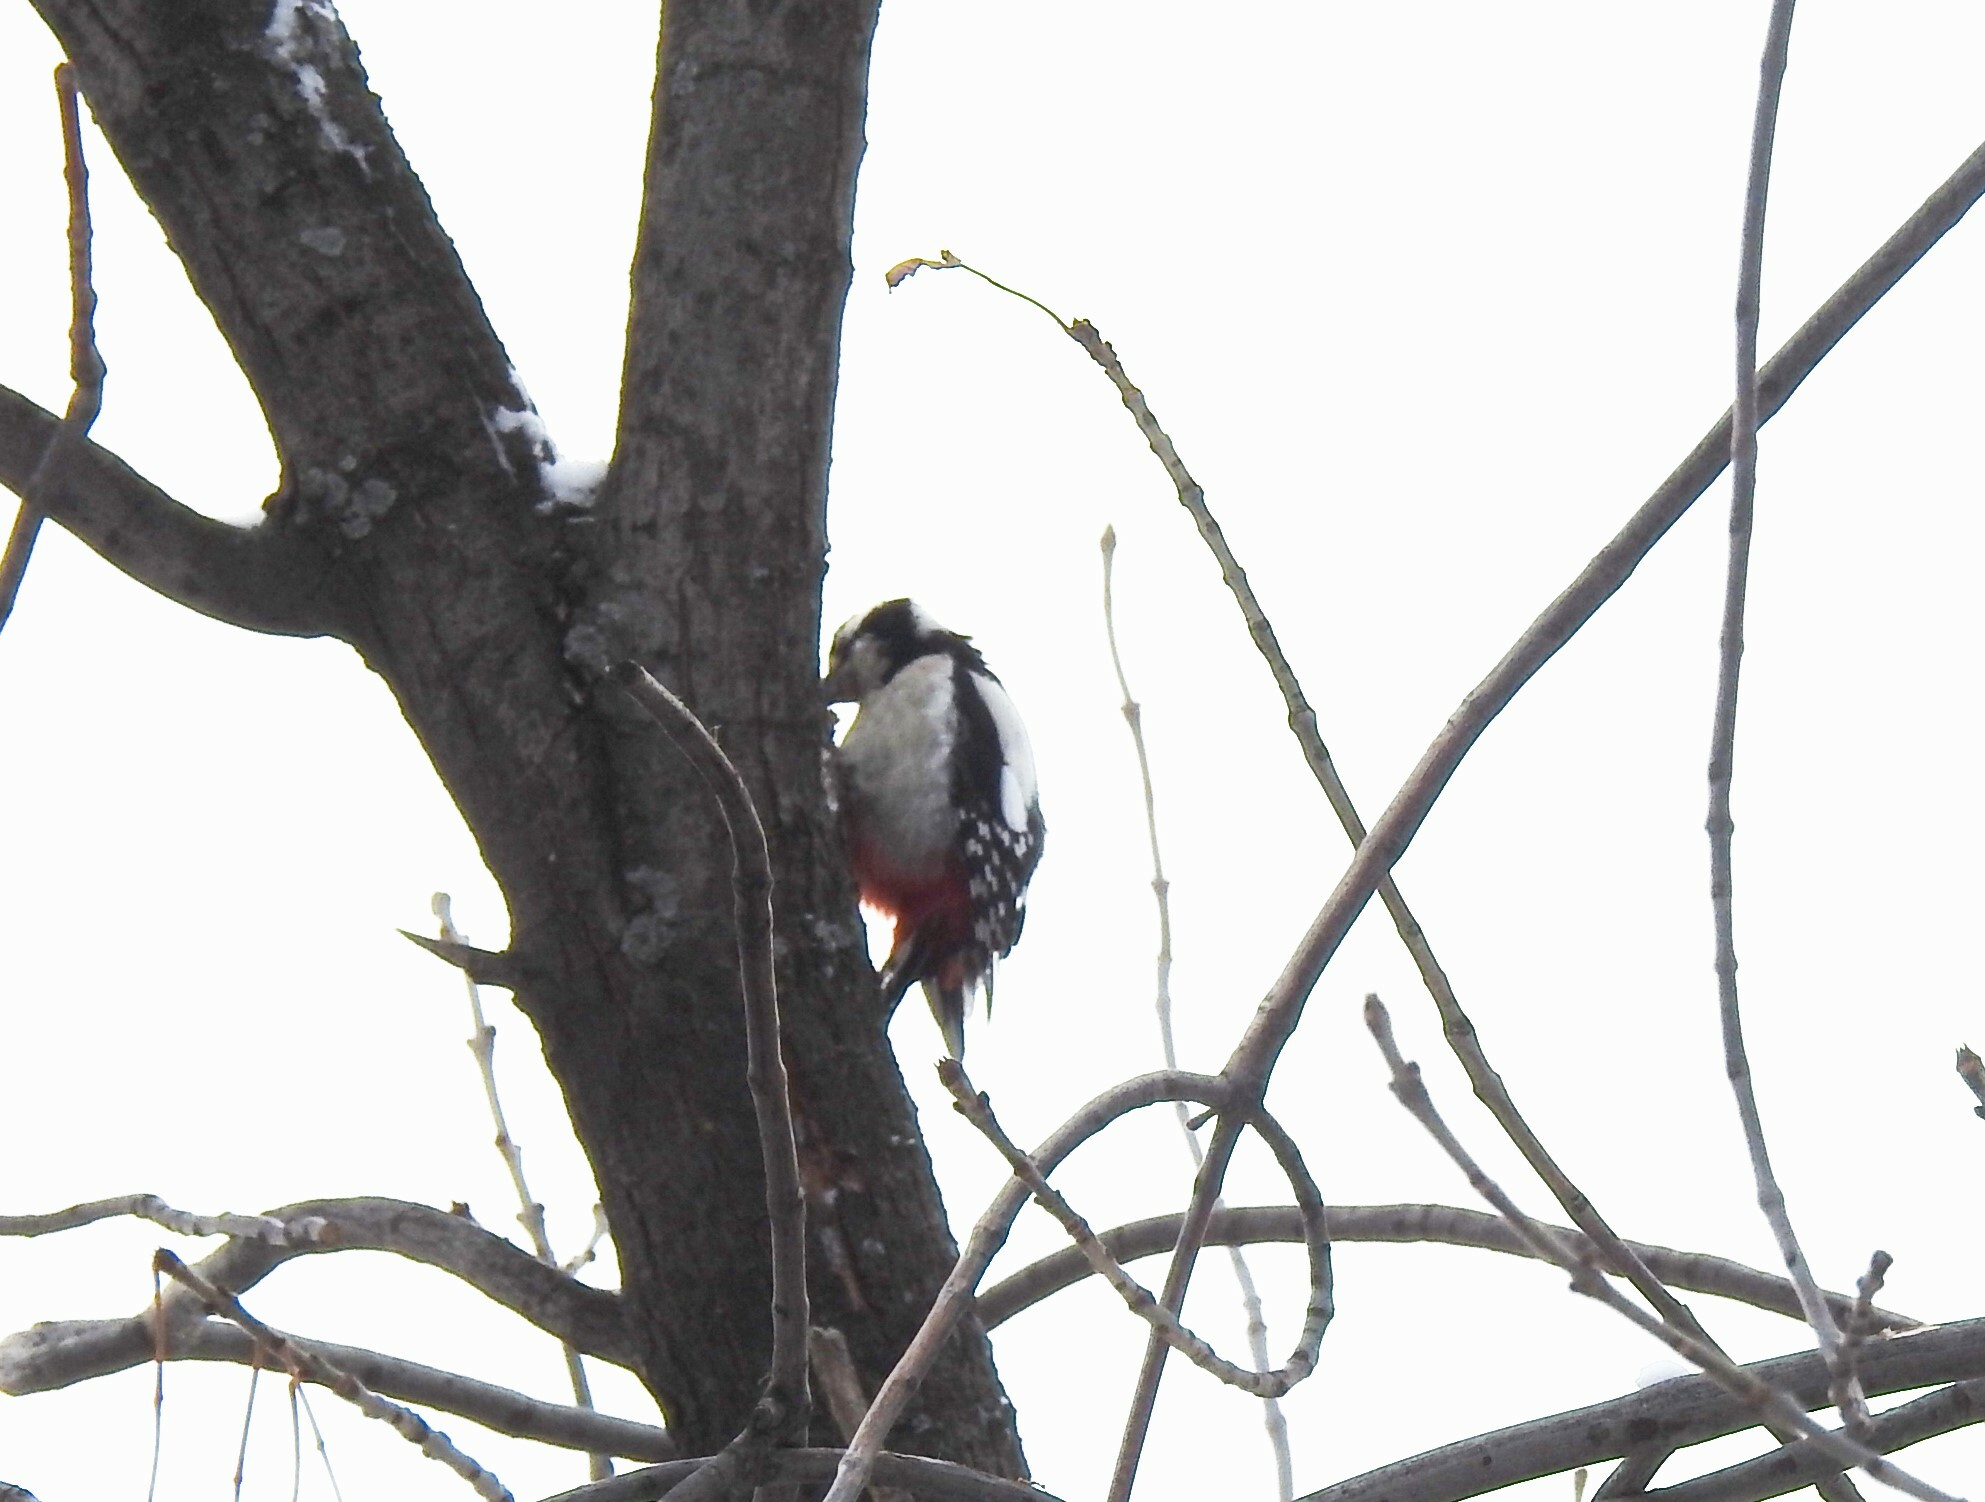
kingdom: Animalia
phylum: Chordata
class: Aves
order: Piciformes
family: Picidae
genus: Dendrocopos
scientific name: Dendrocopos major
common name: Great spotted woodpecker
